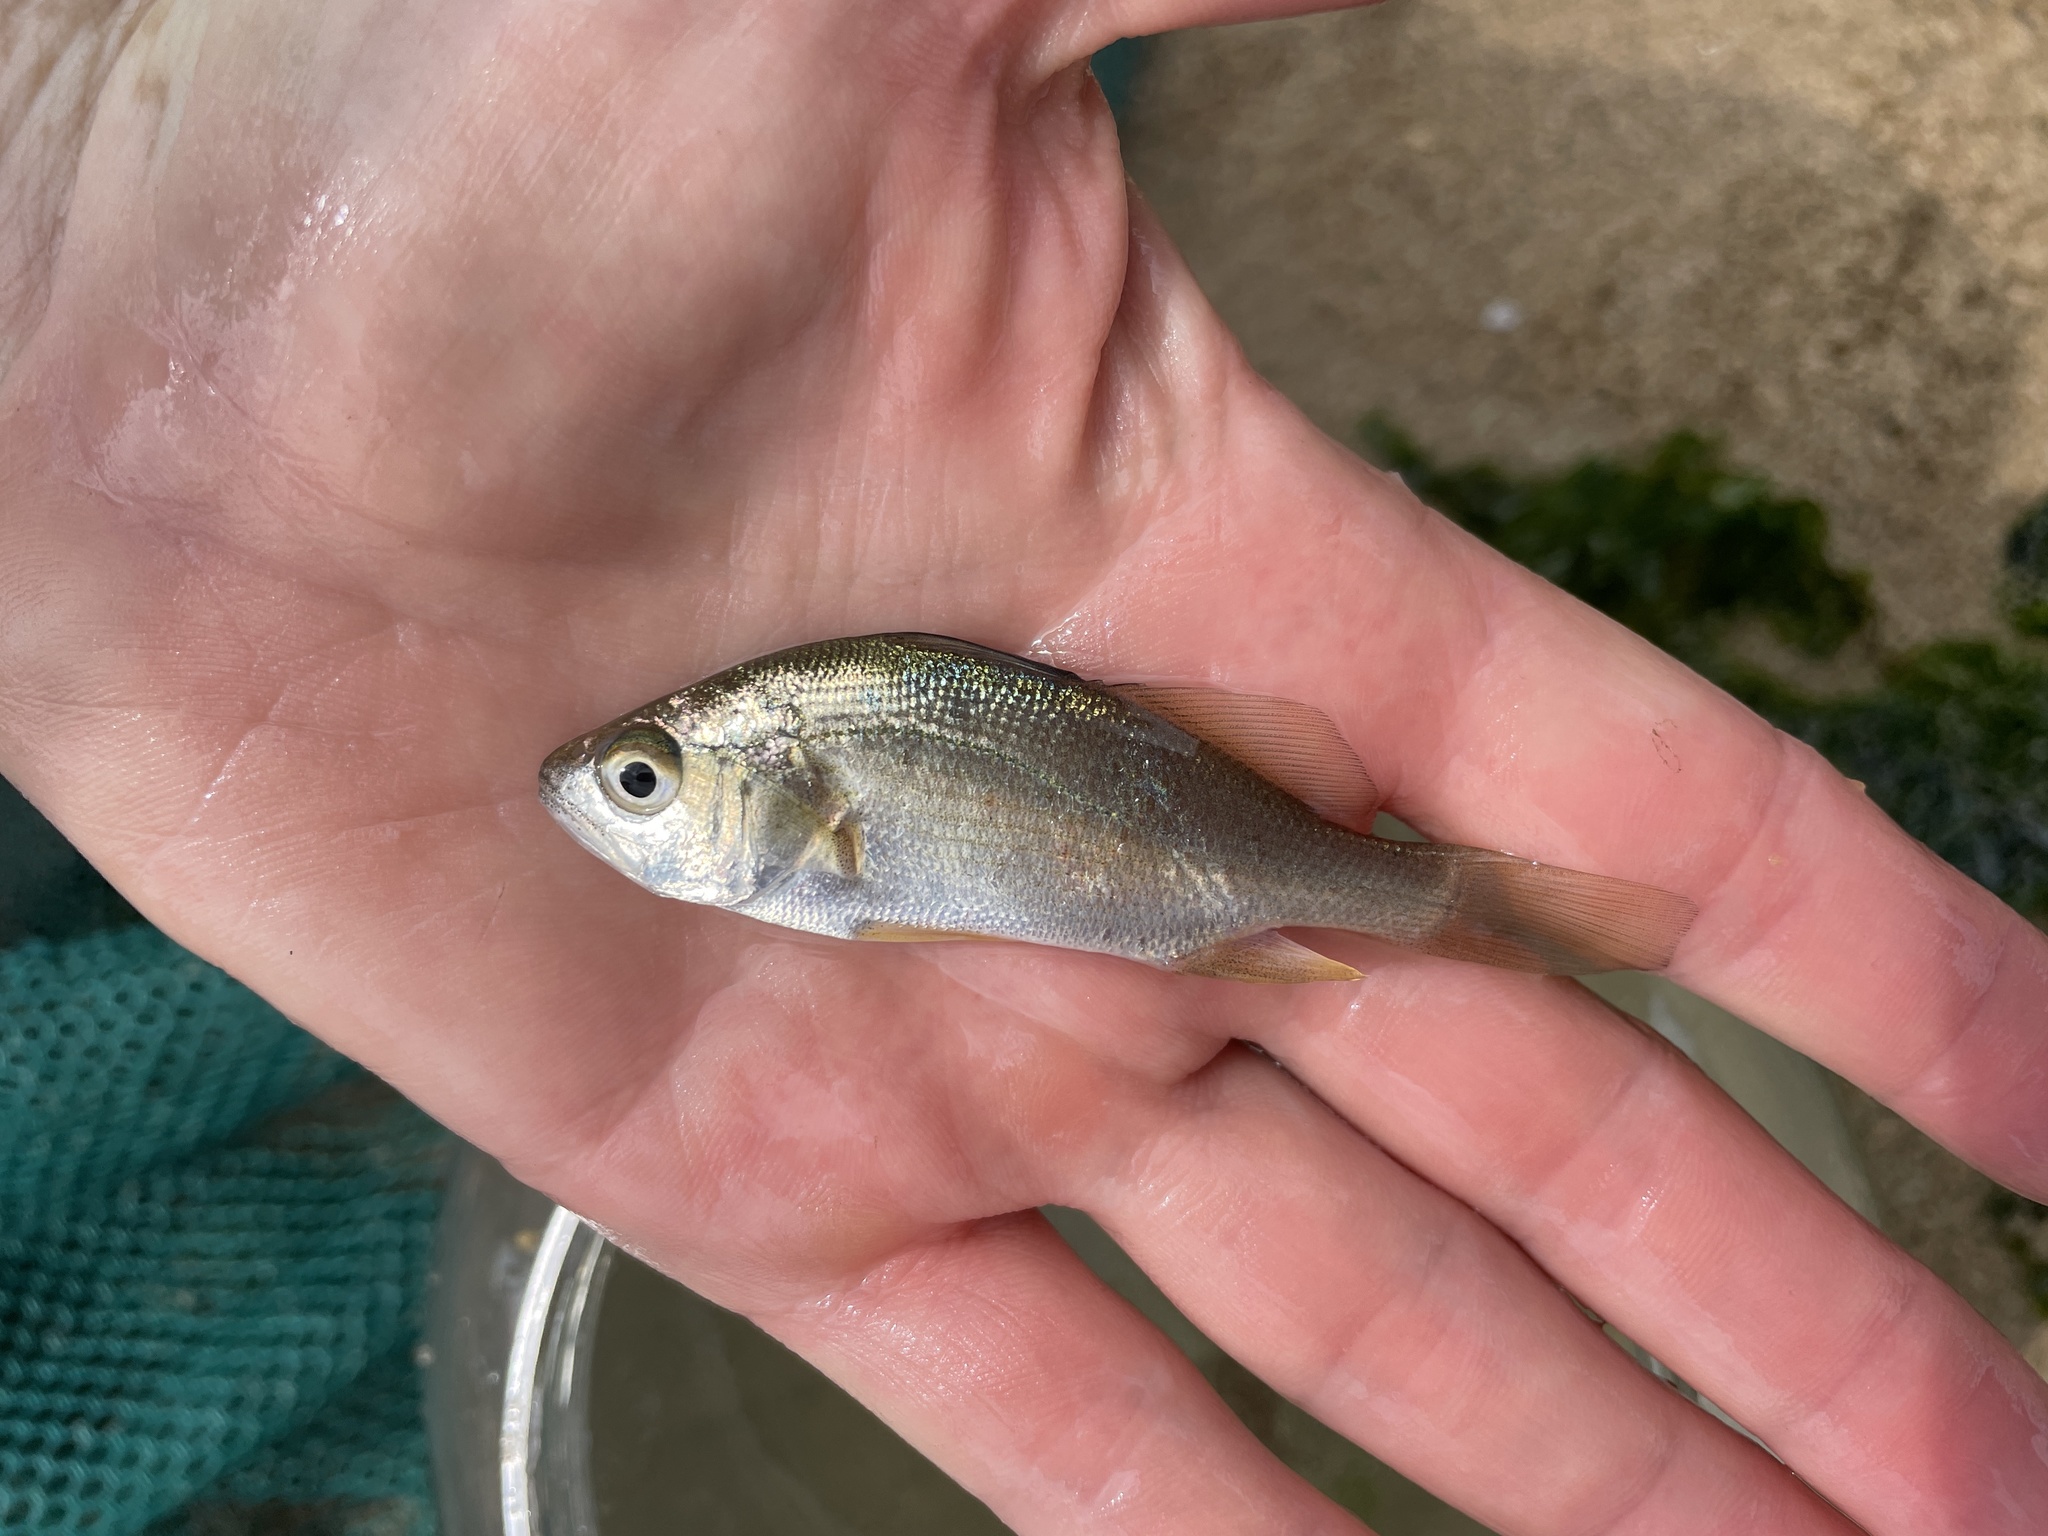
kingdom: Animalia
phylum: Chordata
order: Perciformes
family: Sciaenidae
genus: Bairdiella
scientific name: Bairdiella chrysoura
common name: Silver perch
